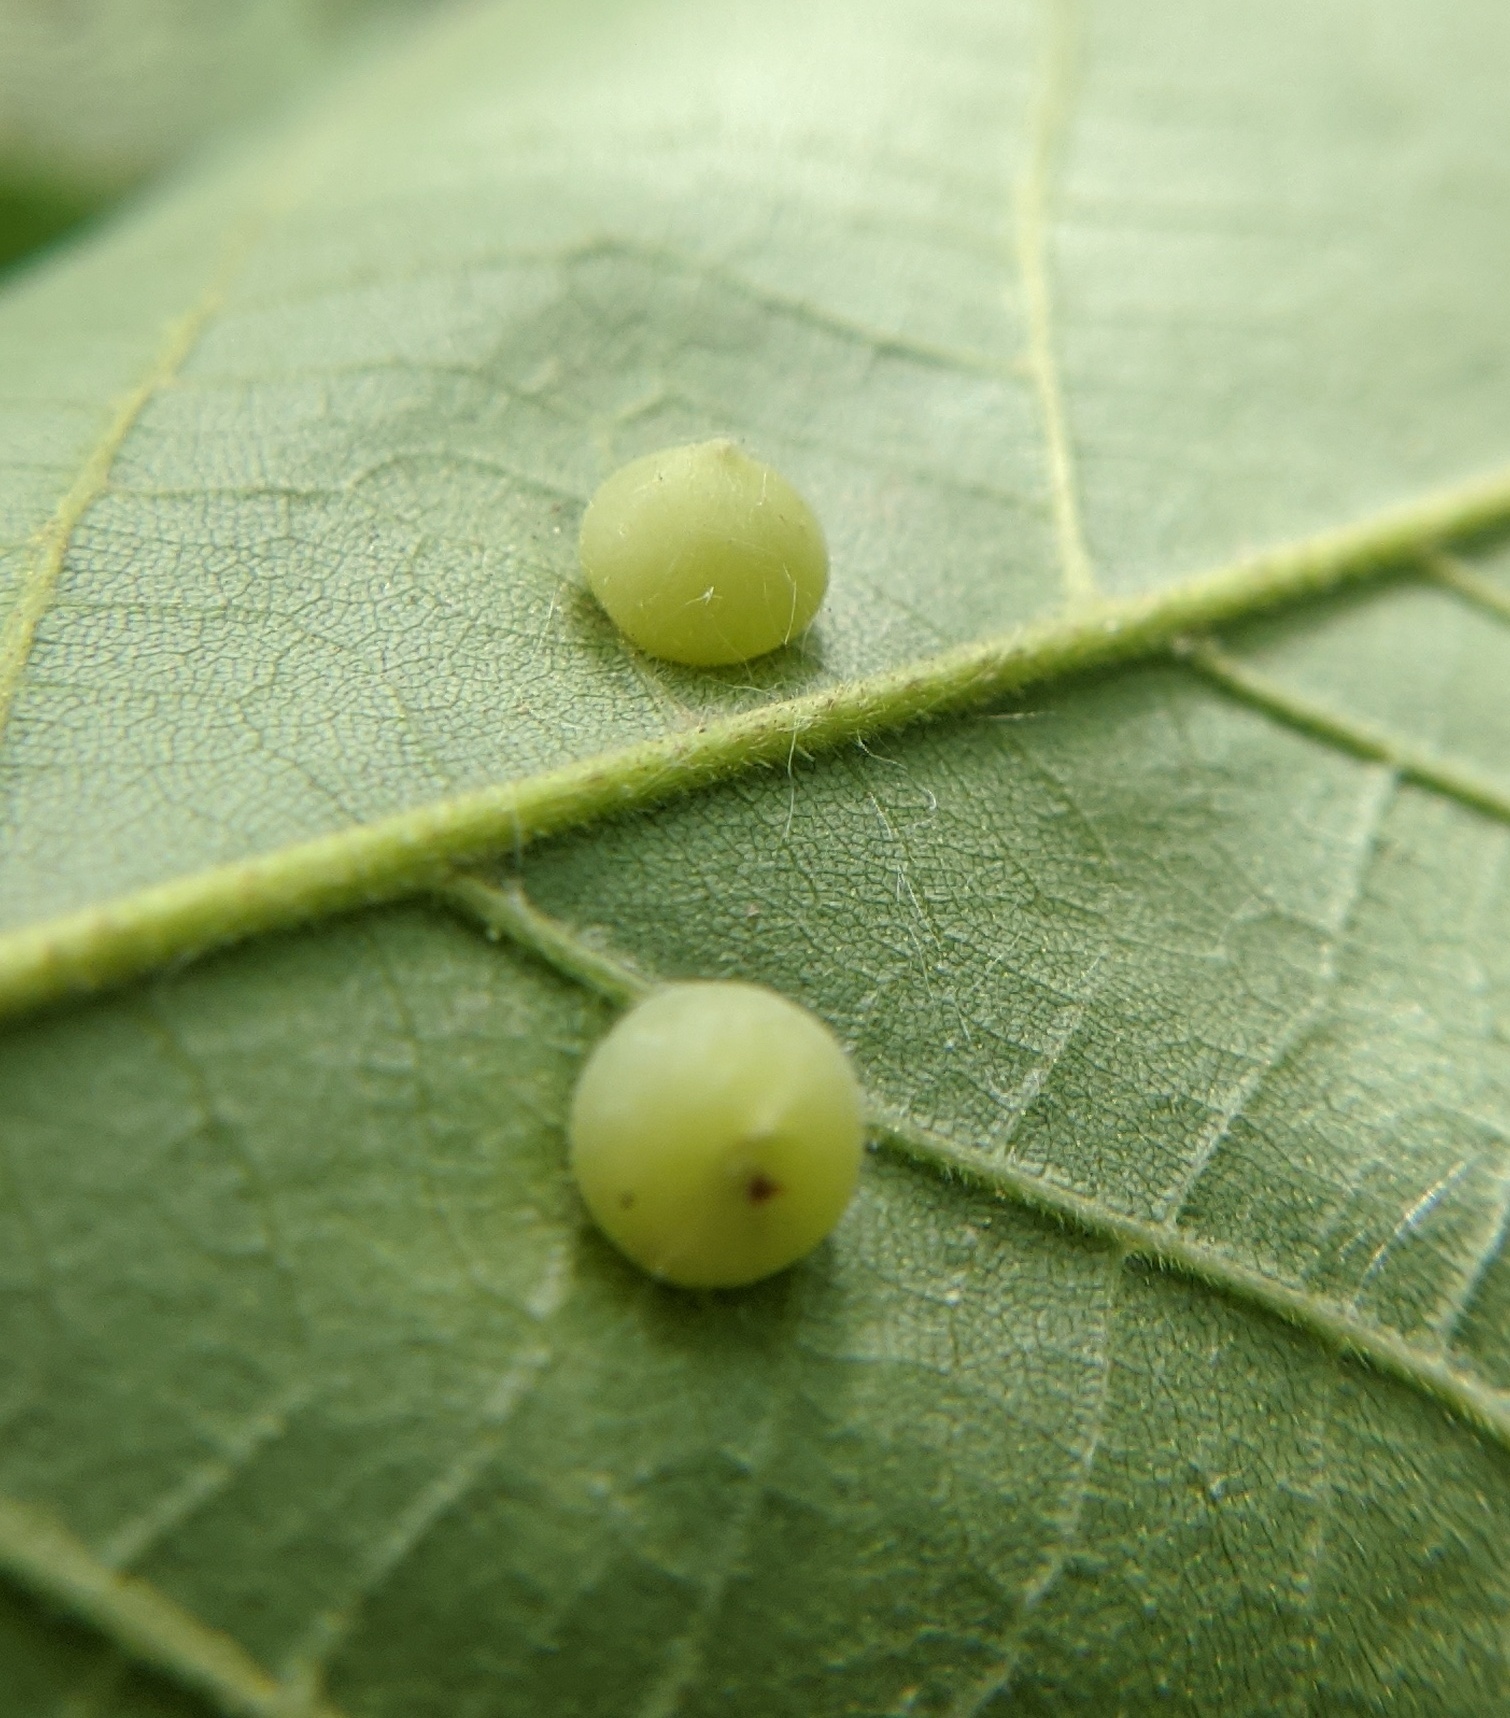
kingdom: Animalia
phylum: Arthropoda
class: Insecta
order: Diptera
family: Cecidomyiidae
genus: Caryomyia
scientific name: Caryomyia conoidea
